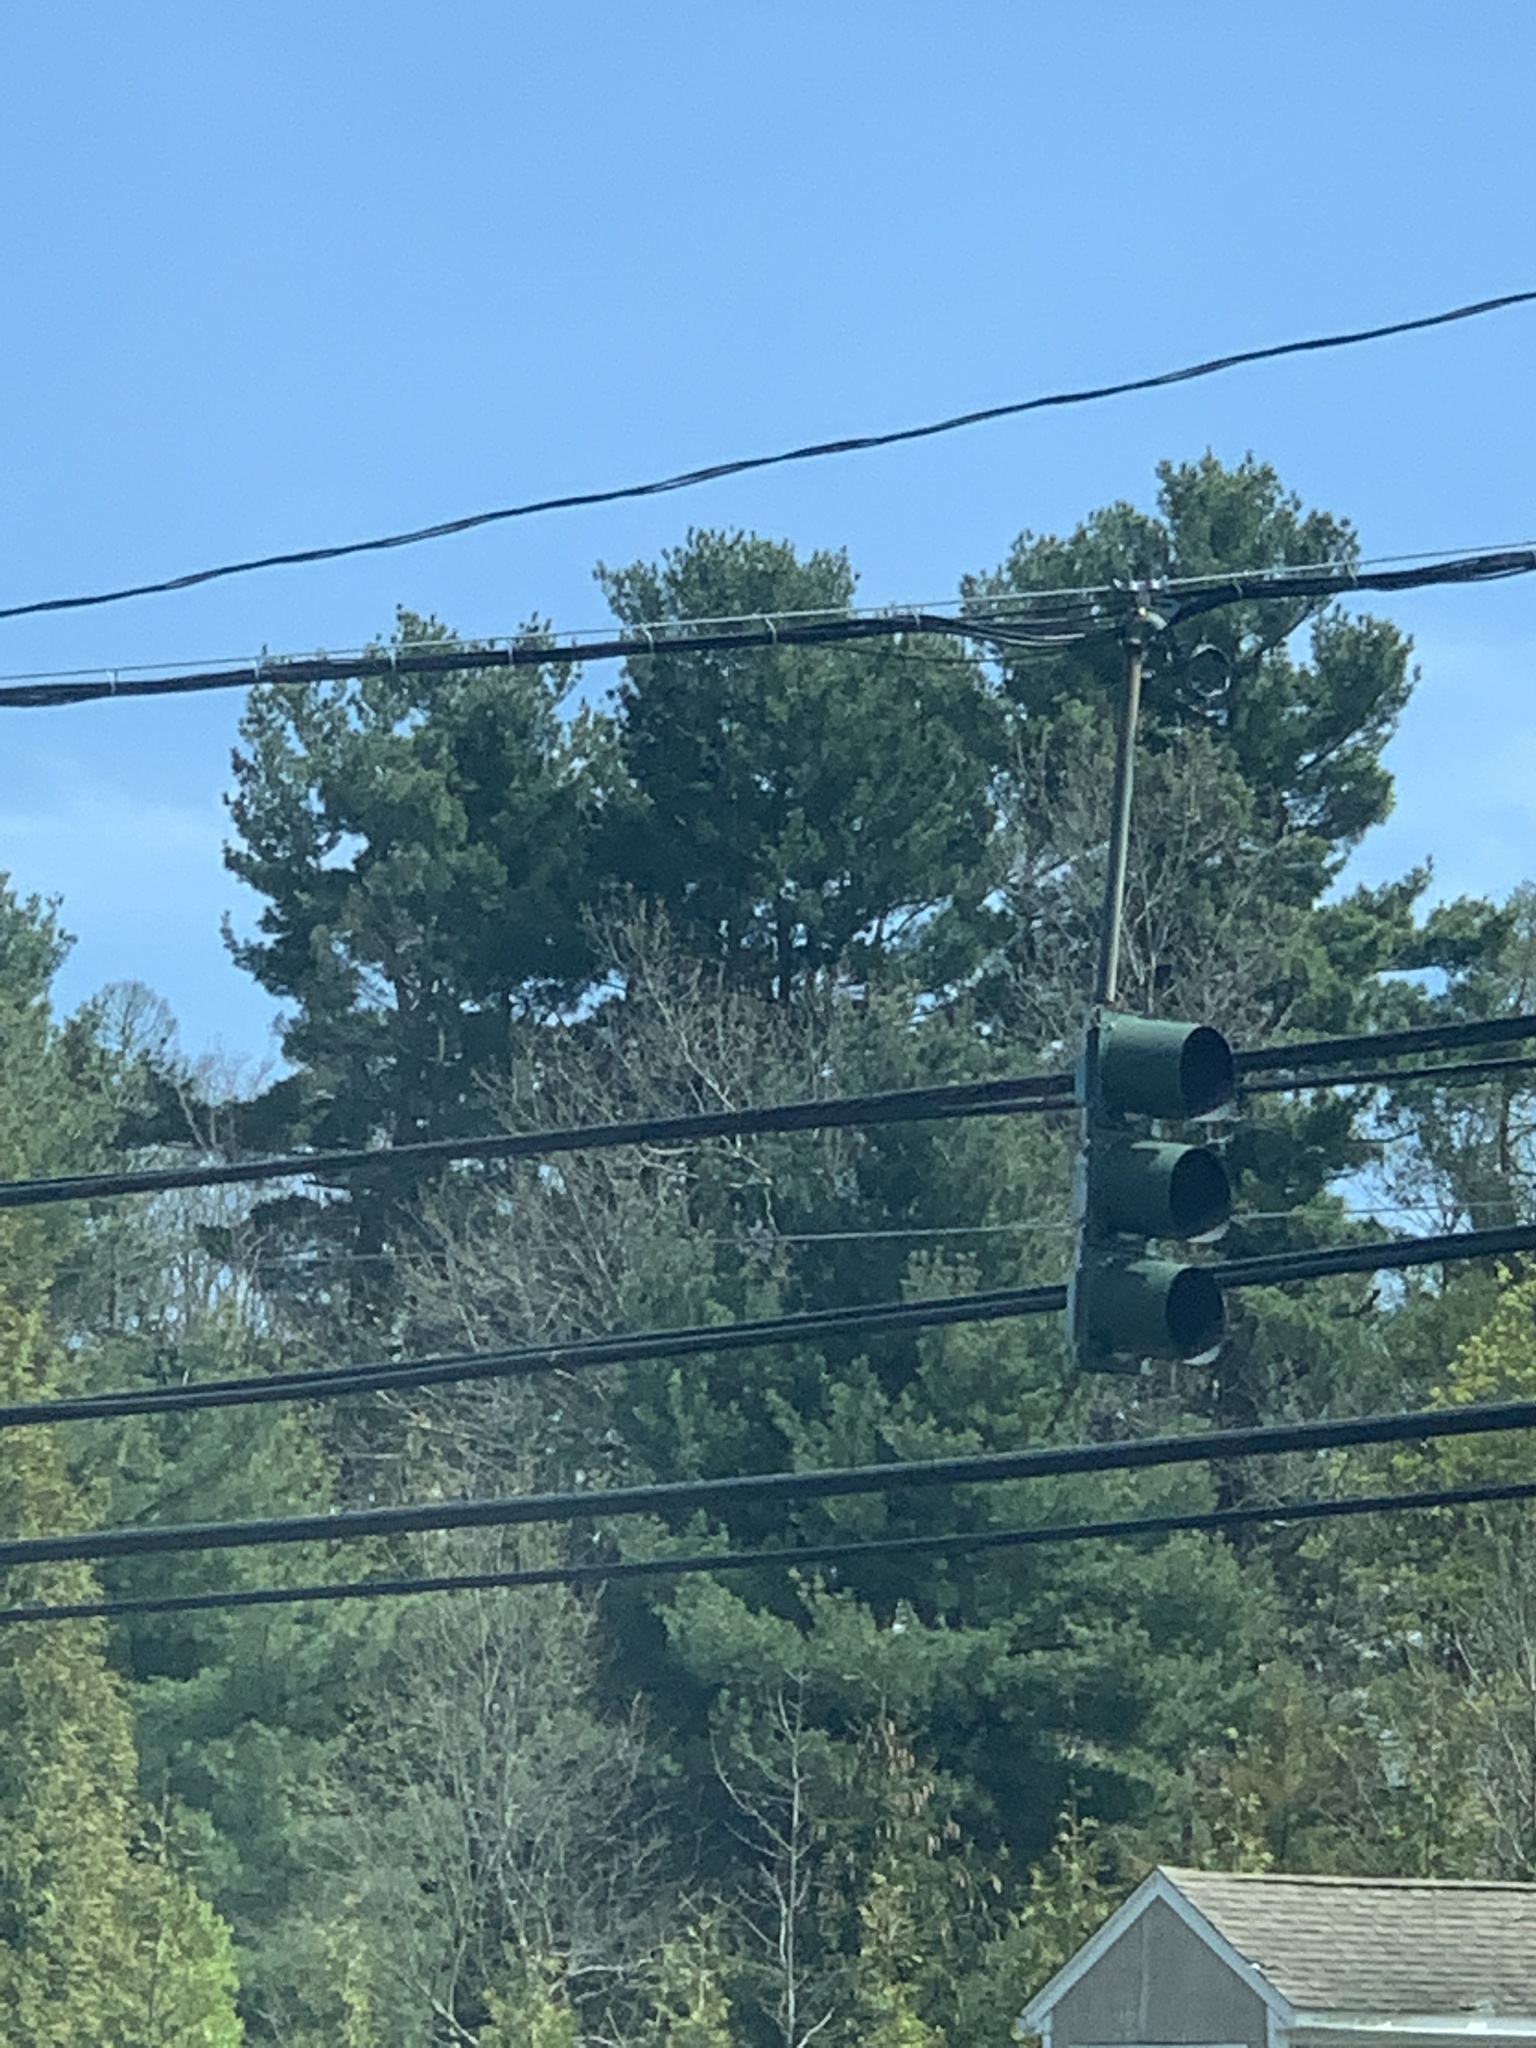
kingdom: Plantae
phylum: Tracheophyta
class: Pinopsida
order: Pinales
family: Pinaceae
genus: Pinus
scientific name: Pinus strobus
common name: Weymouth pine
